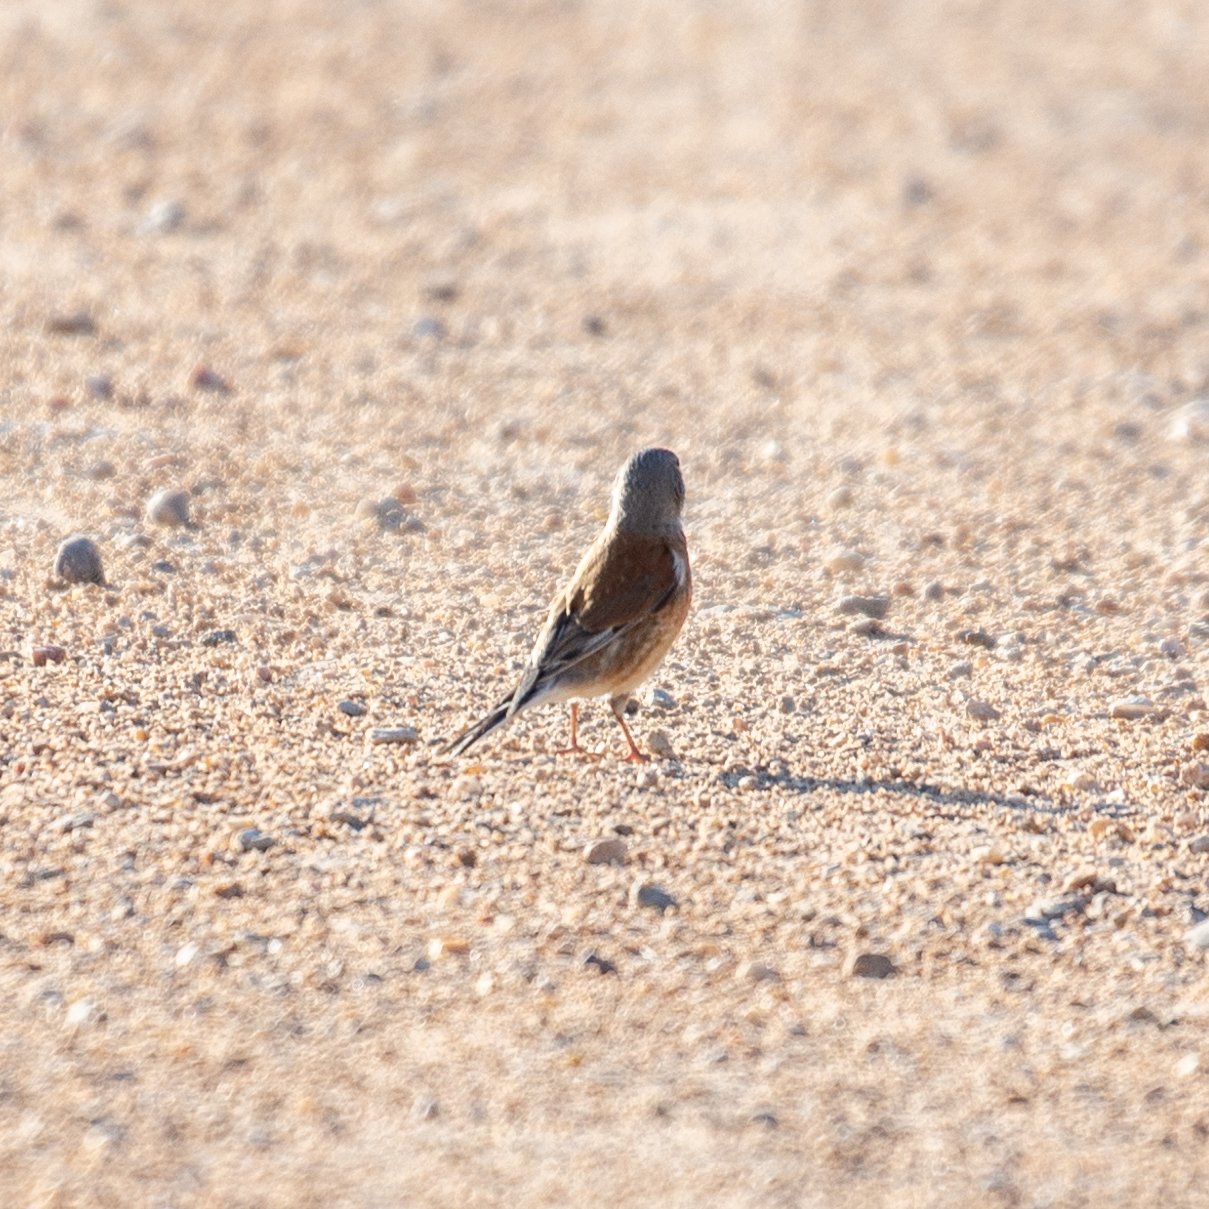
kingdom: Animalia
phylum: Chordata
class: Aves
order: Passeriformes
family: Fringillidae
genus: Linaria
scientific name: Linaria cannabina
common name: Common linnet
